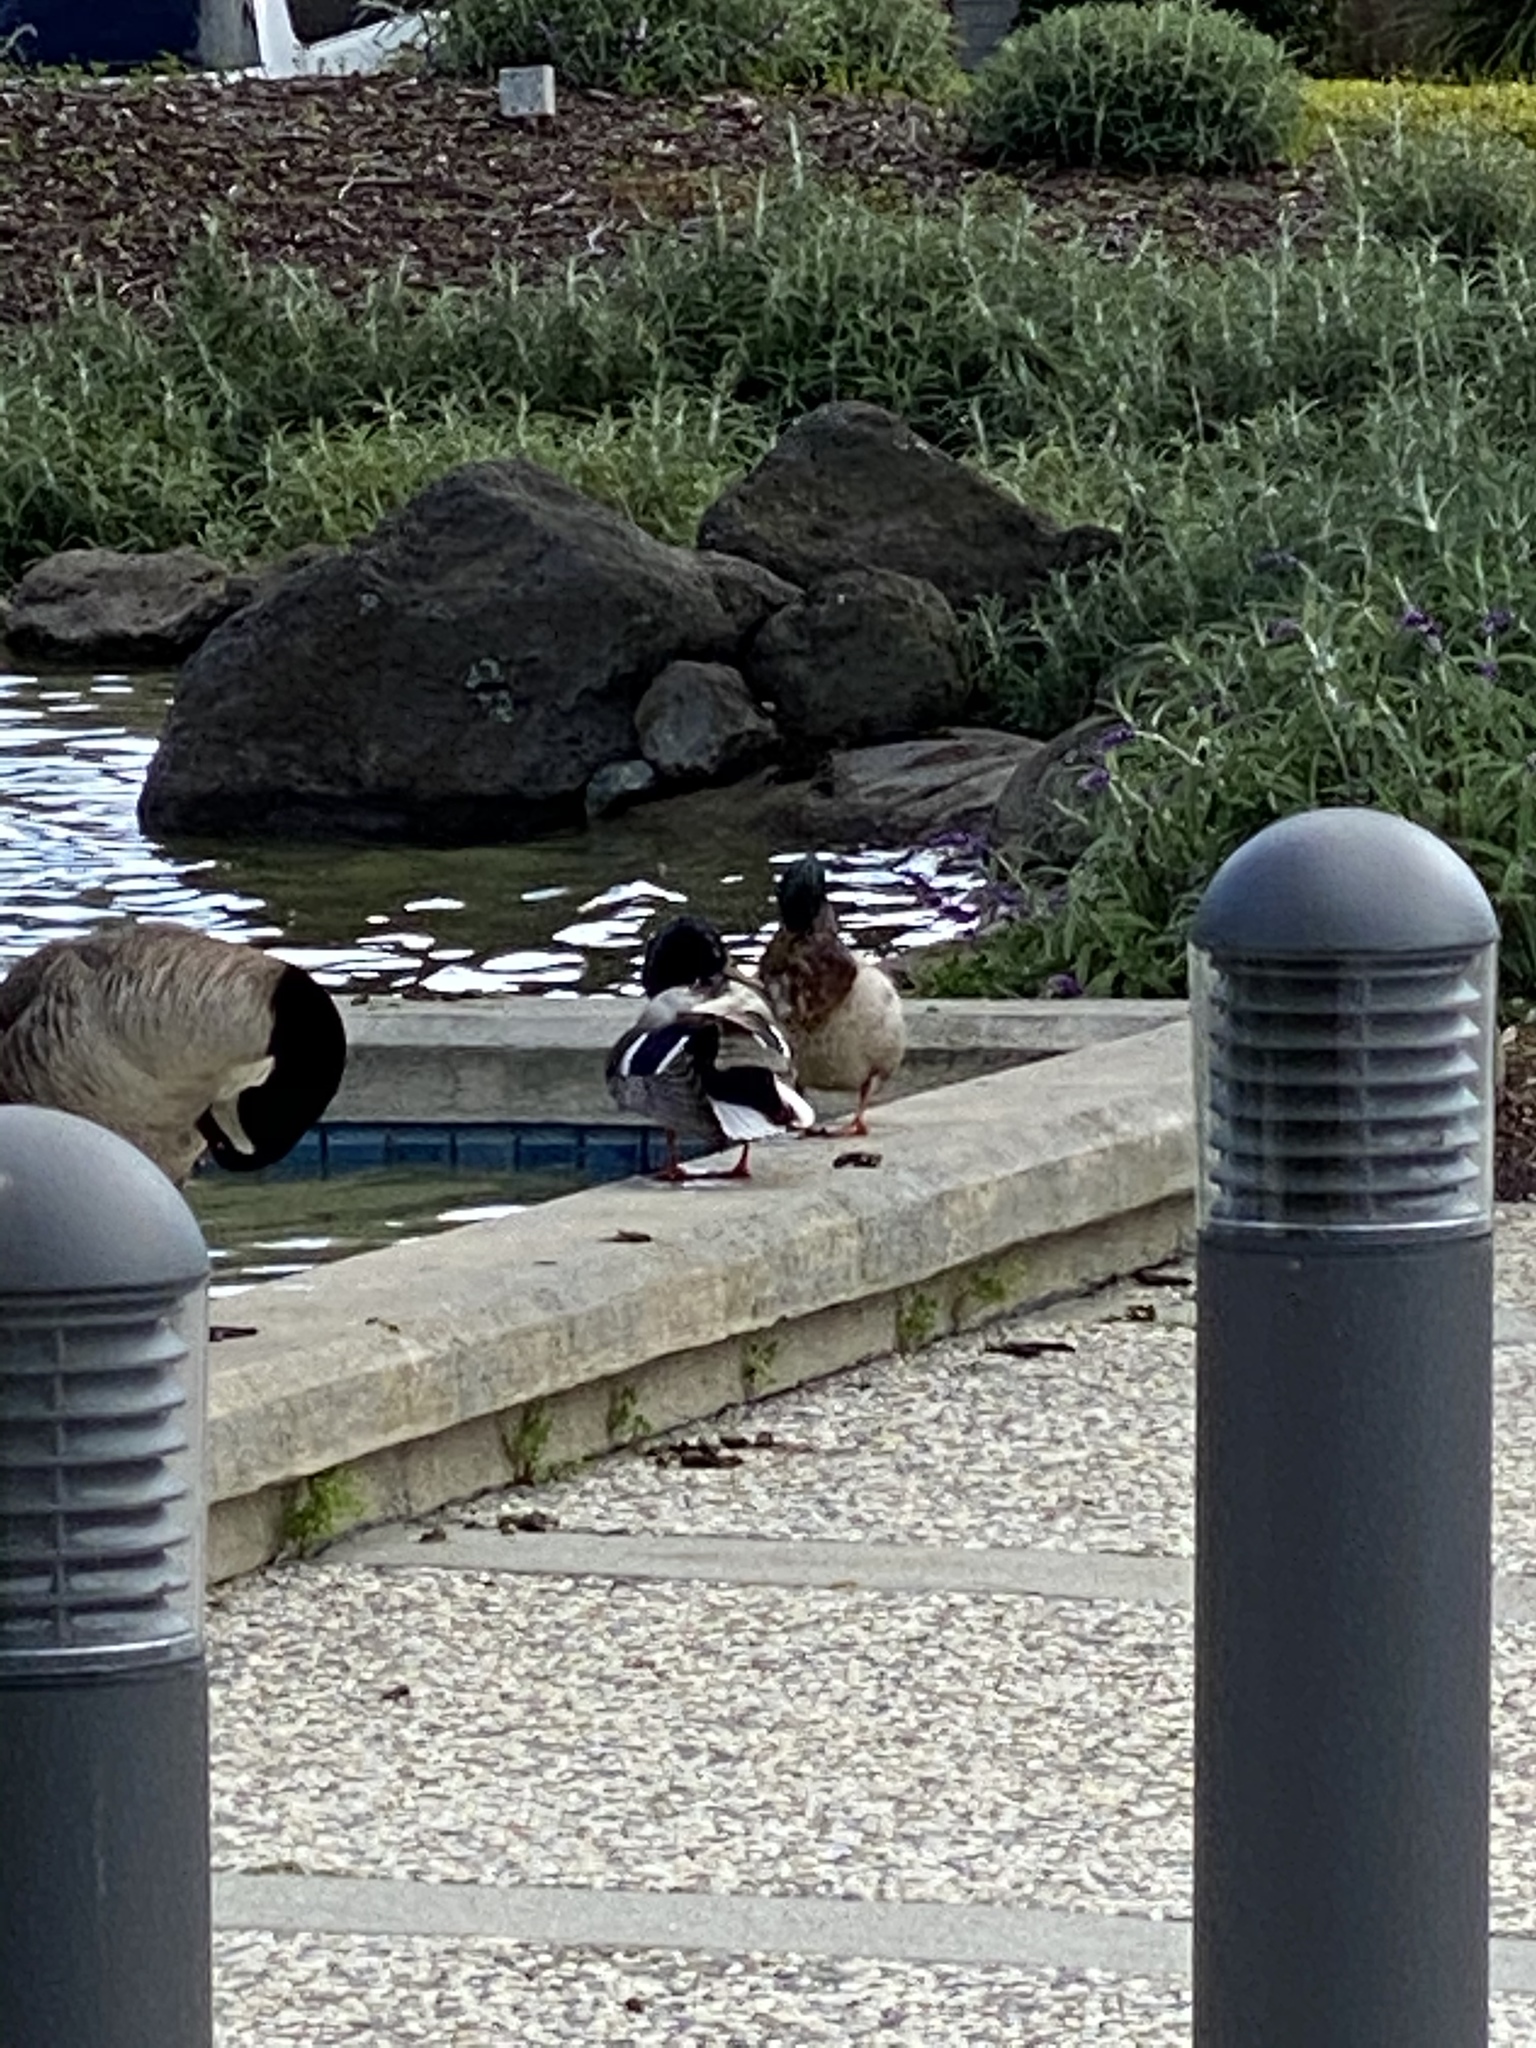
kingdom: Animalia
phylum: Chordata
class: Aves
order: Anseriformes
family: Anatidae
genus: Anas
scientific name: Anas platyrhynchos
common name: Mallard
